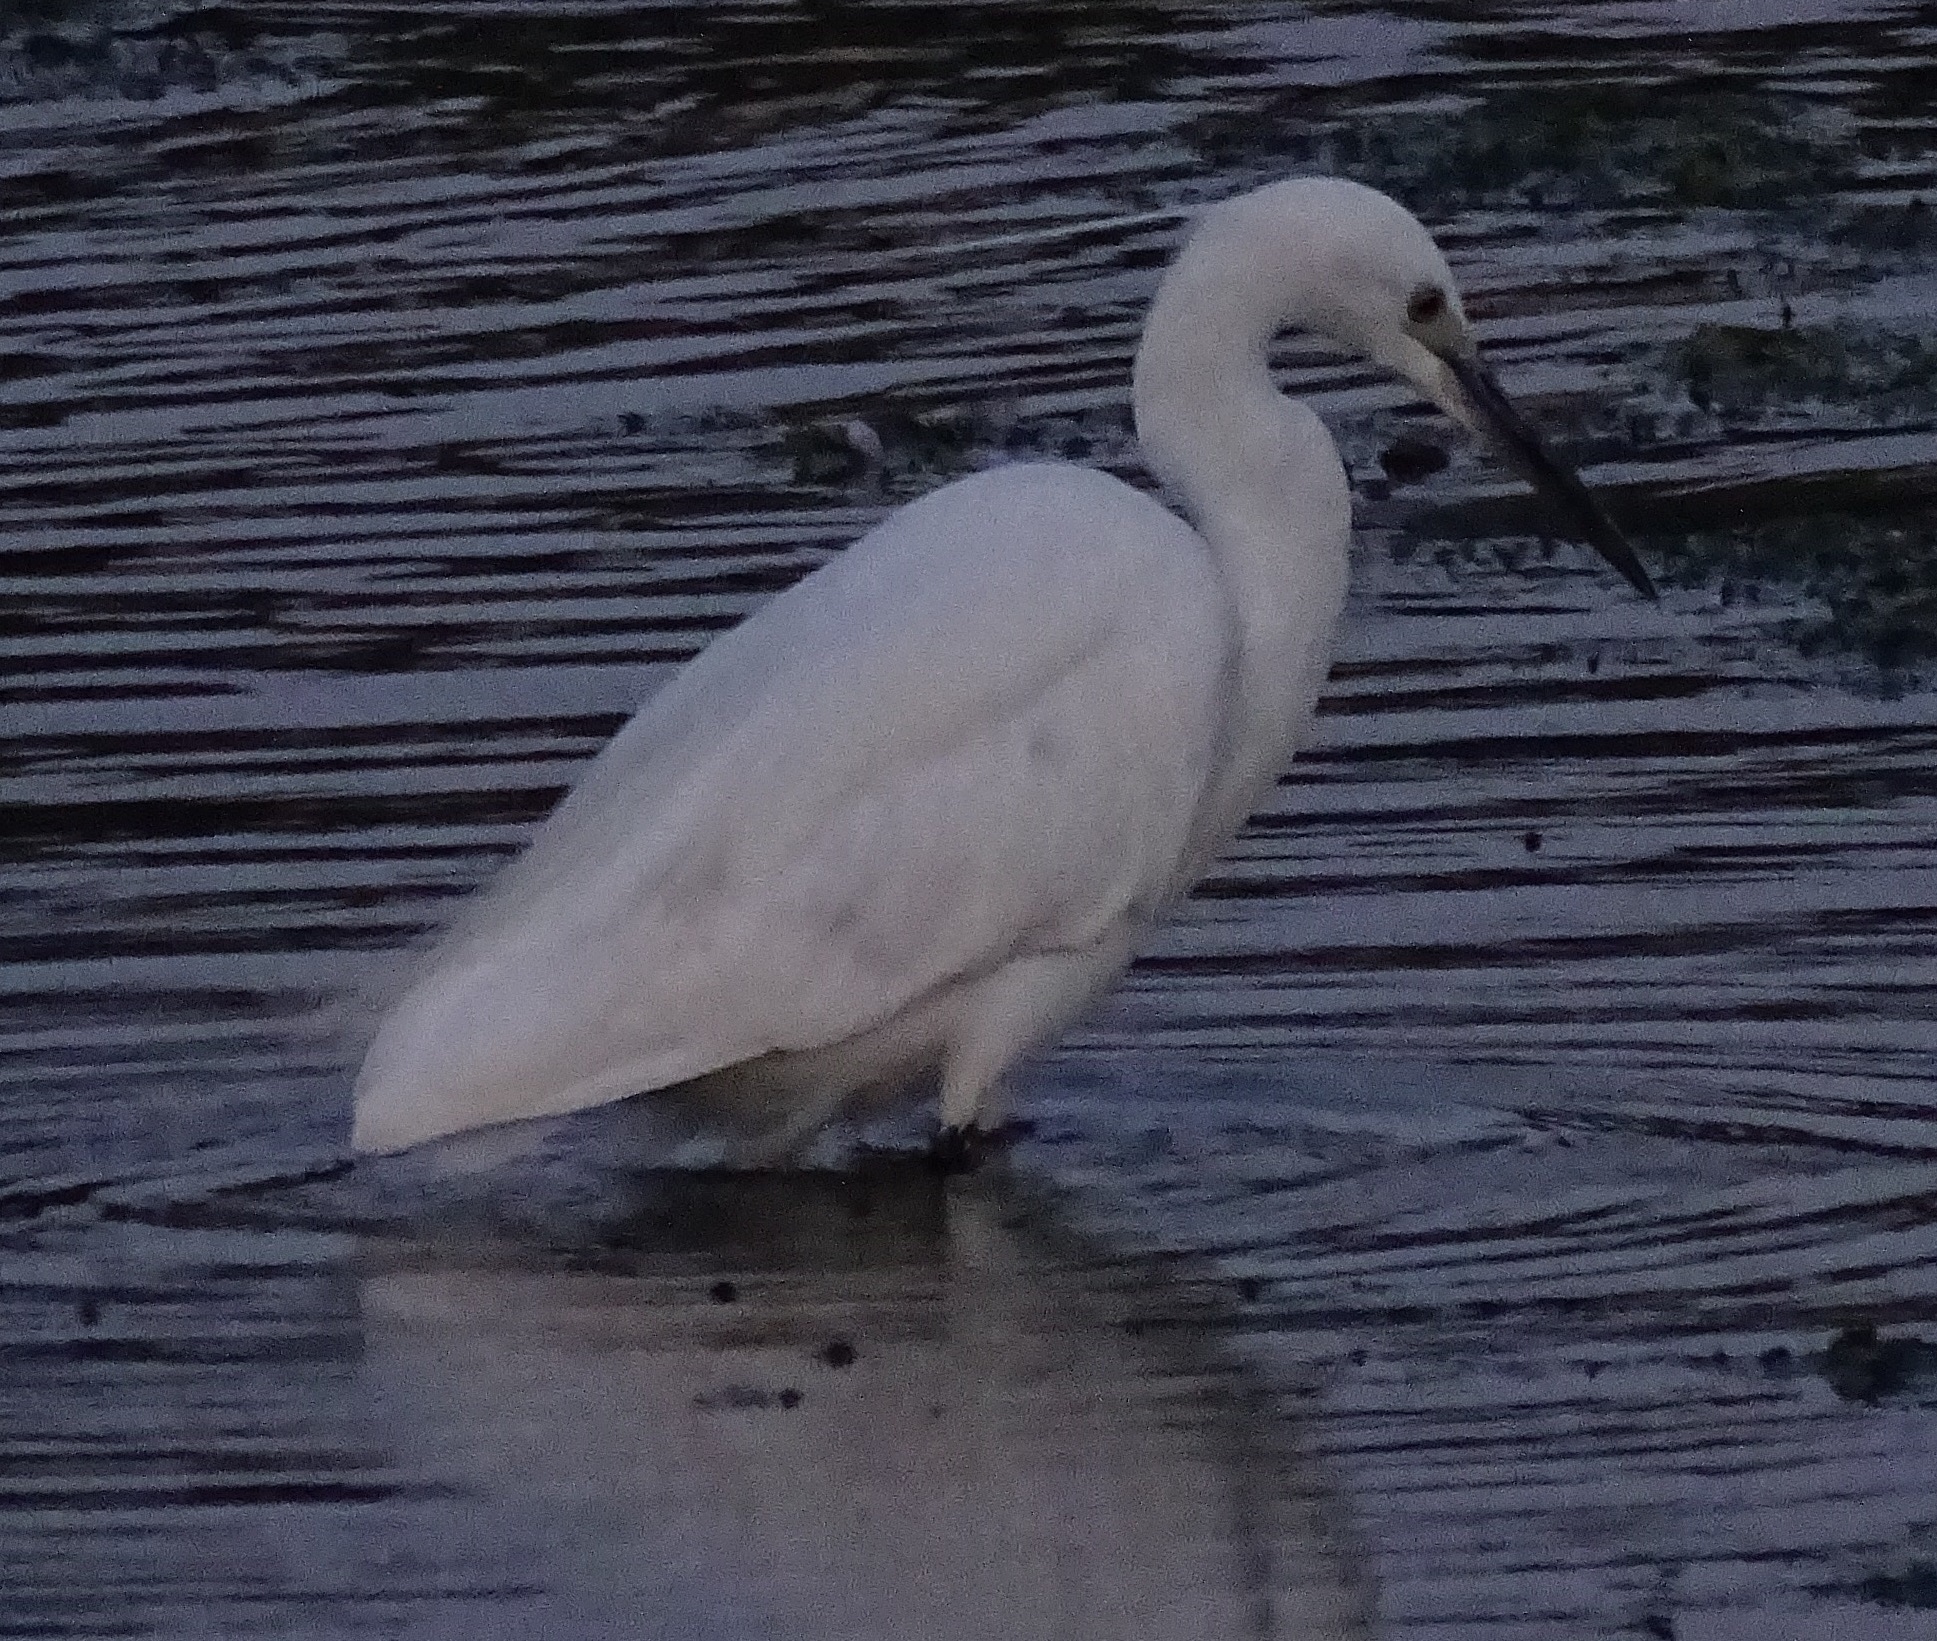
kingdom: Animalia
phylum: Chordata
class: Aves
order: Pelecaniformes
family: Ardeidae
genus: Egretta
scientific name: Egretta garzetta
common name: Little egret
